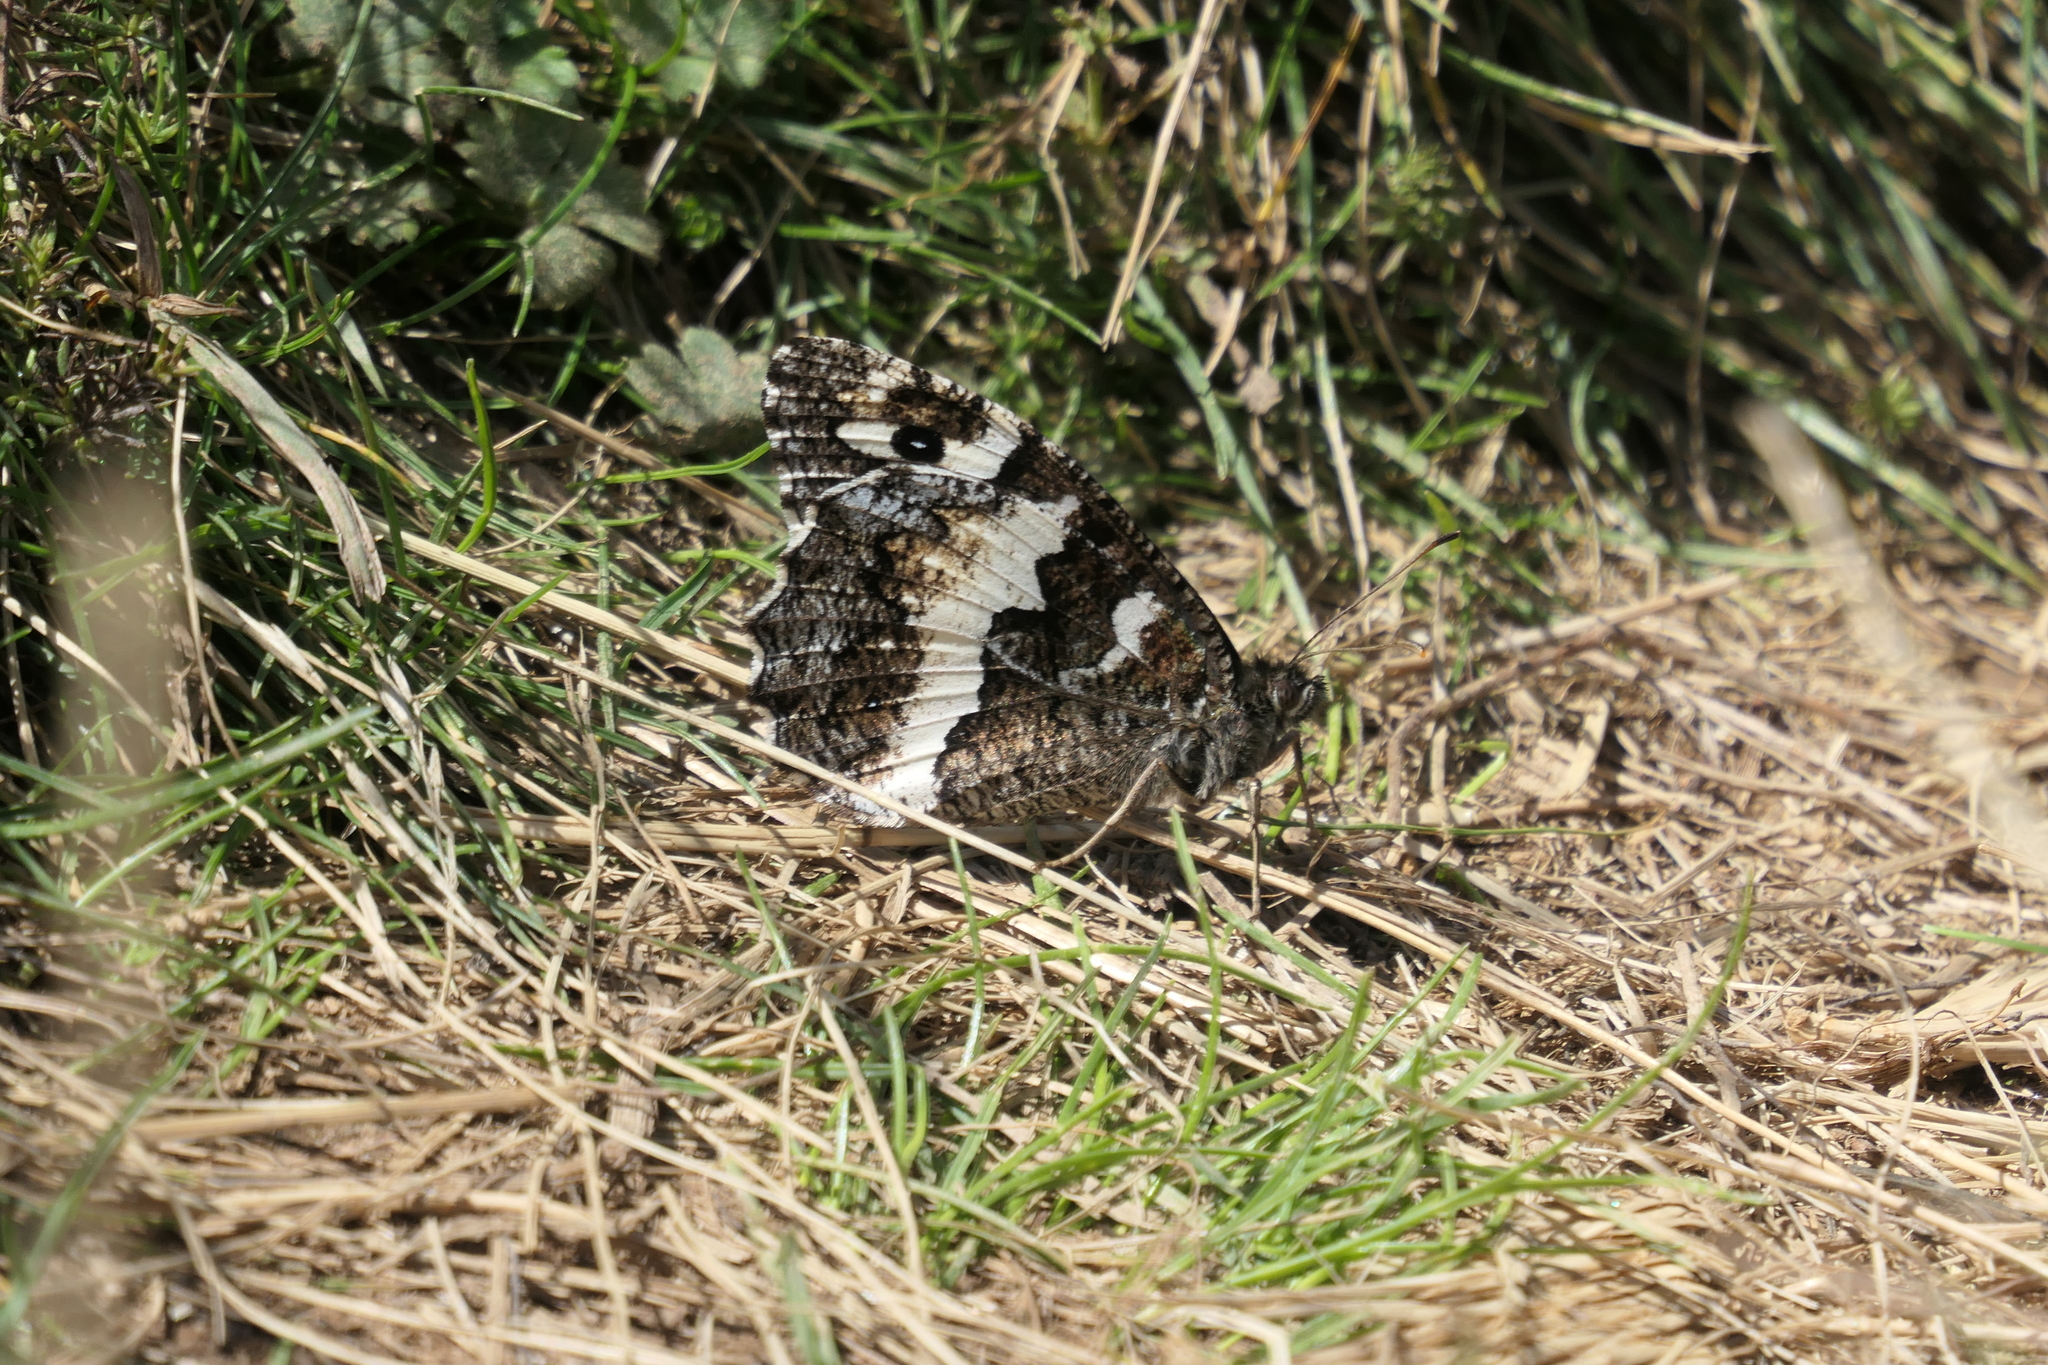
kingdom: Animalia
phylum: Arthropoda
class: Insecta
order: Lepidoptera
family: Lycaenidae
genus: Loweia
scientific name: Loweia tityrus
